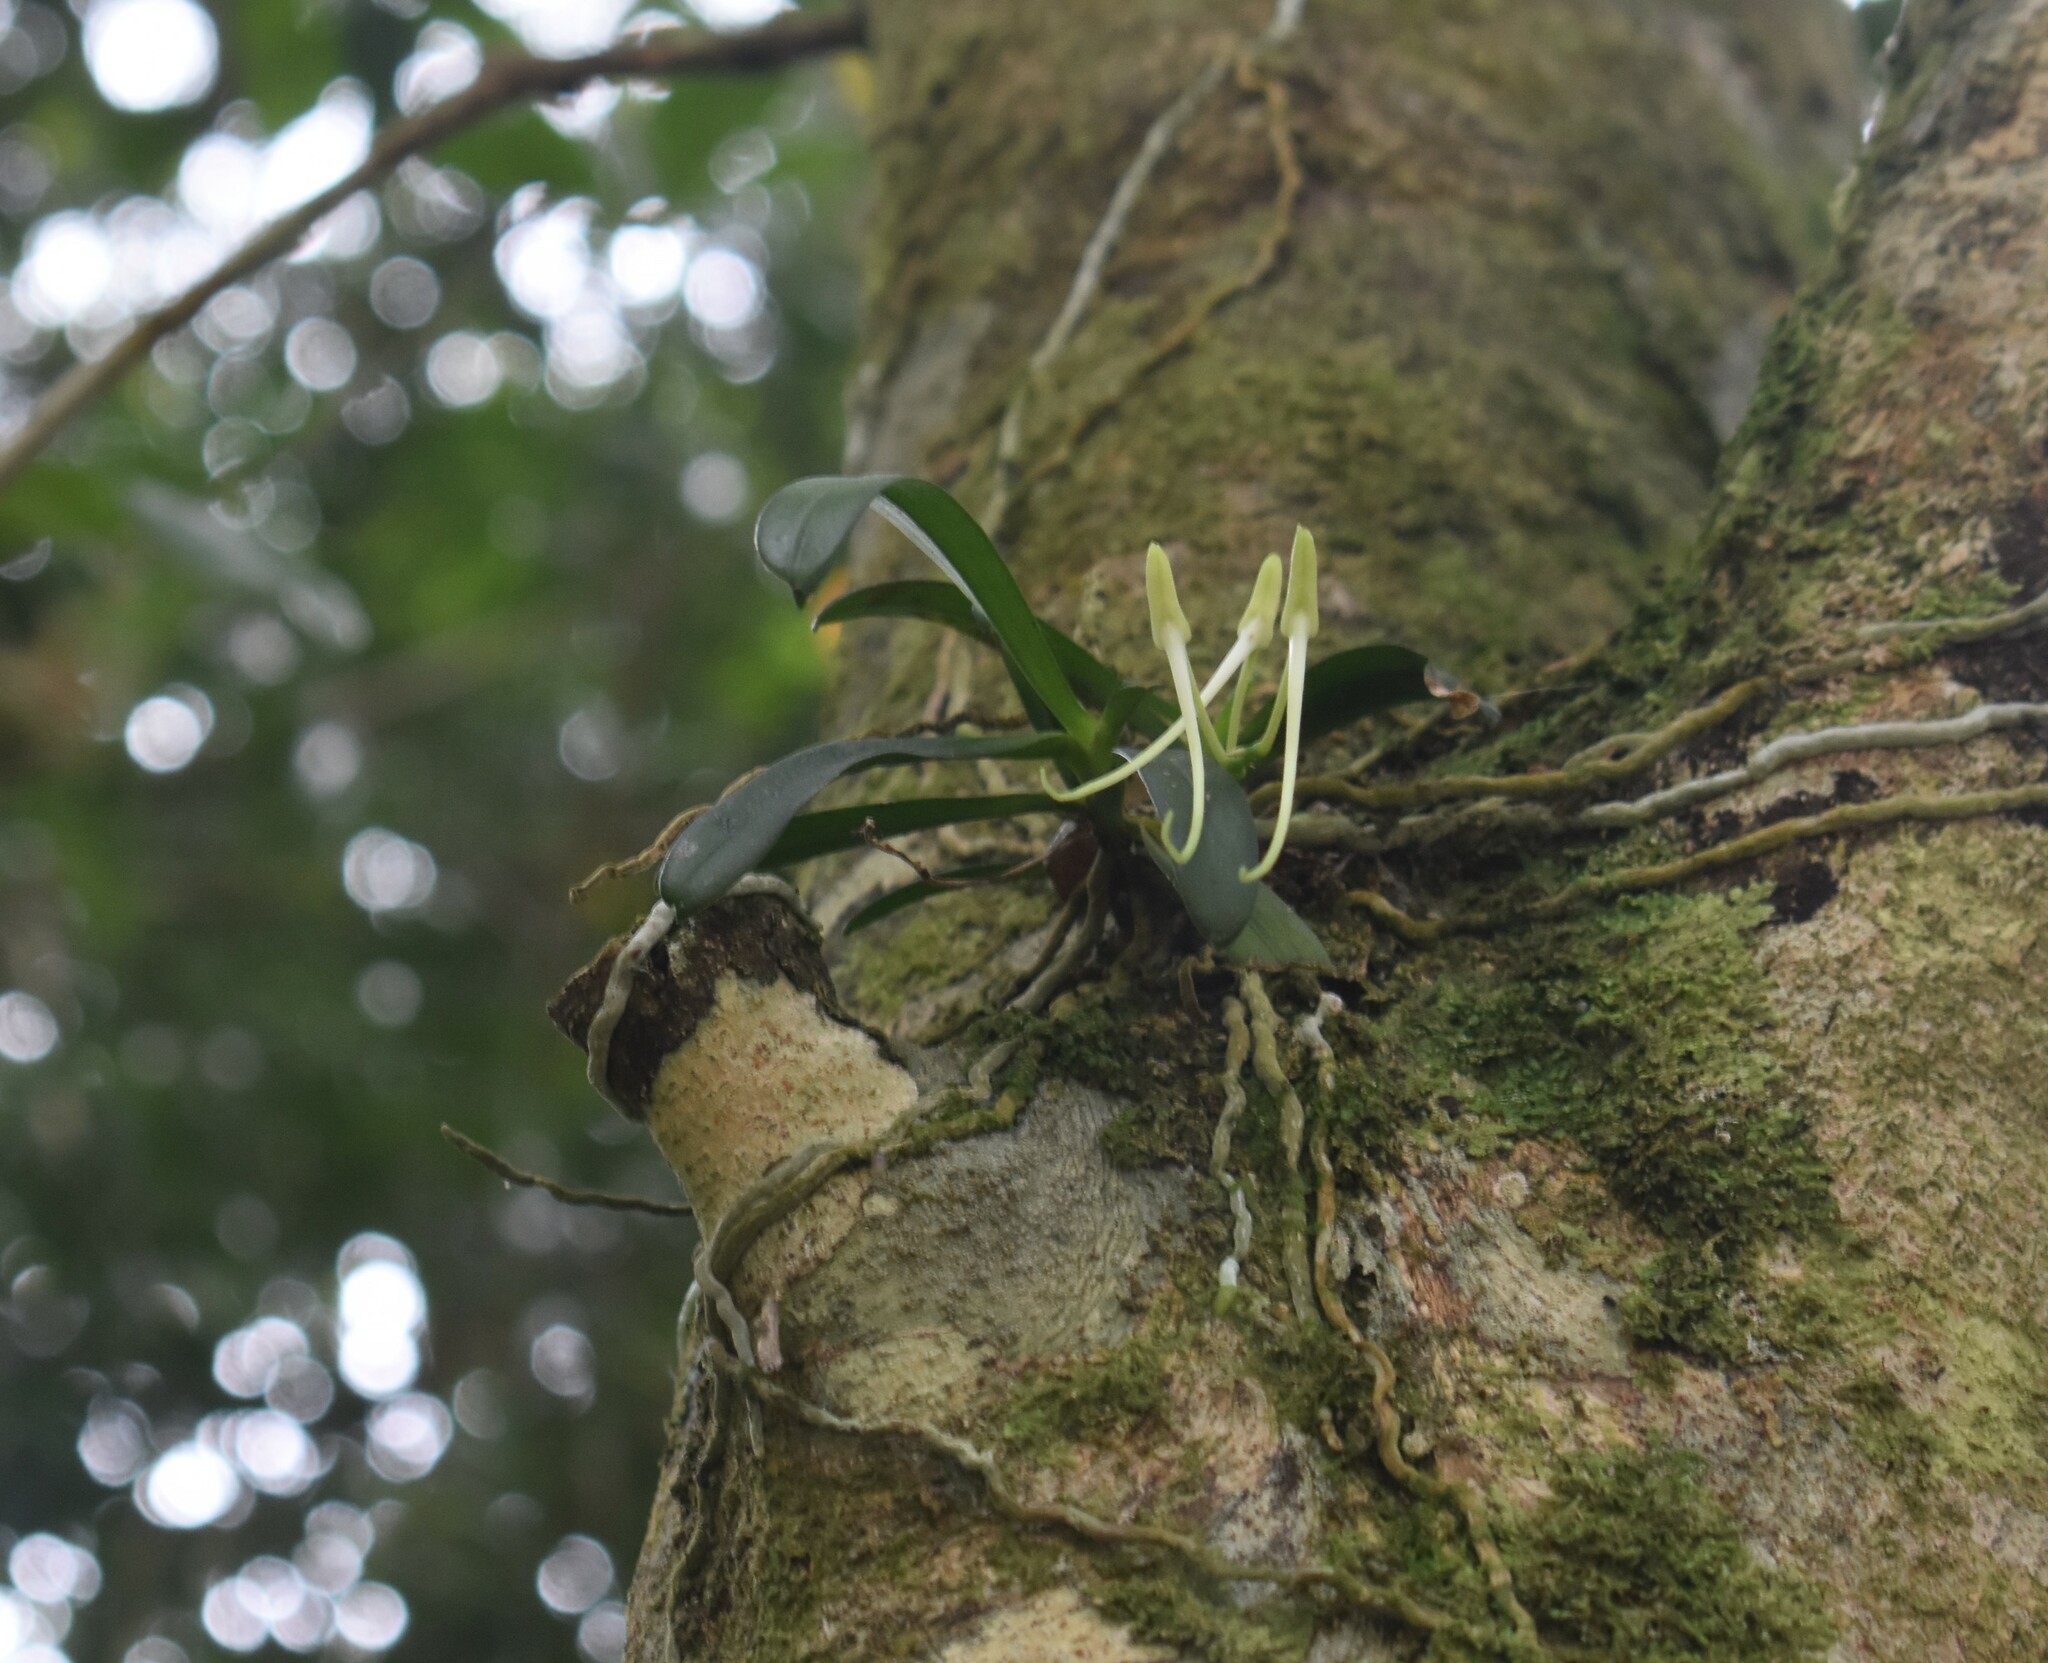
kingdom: Plantae
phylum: Tracheophyta
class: Liliopsida
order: Asparagales
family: Orchidaceae
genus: Mystacidium
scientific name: Mystacidium capense
